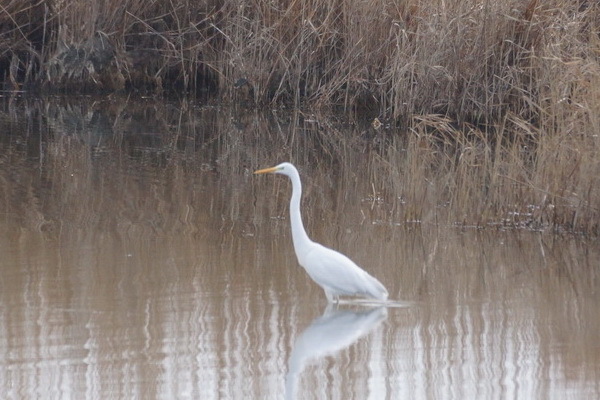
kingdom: Animalia
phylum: Chordata
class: Aves
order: Pelecaniformes
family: Ardeidae
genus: Ardea
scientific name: Ardea alba
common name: Great egret
